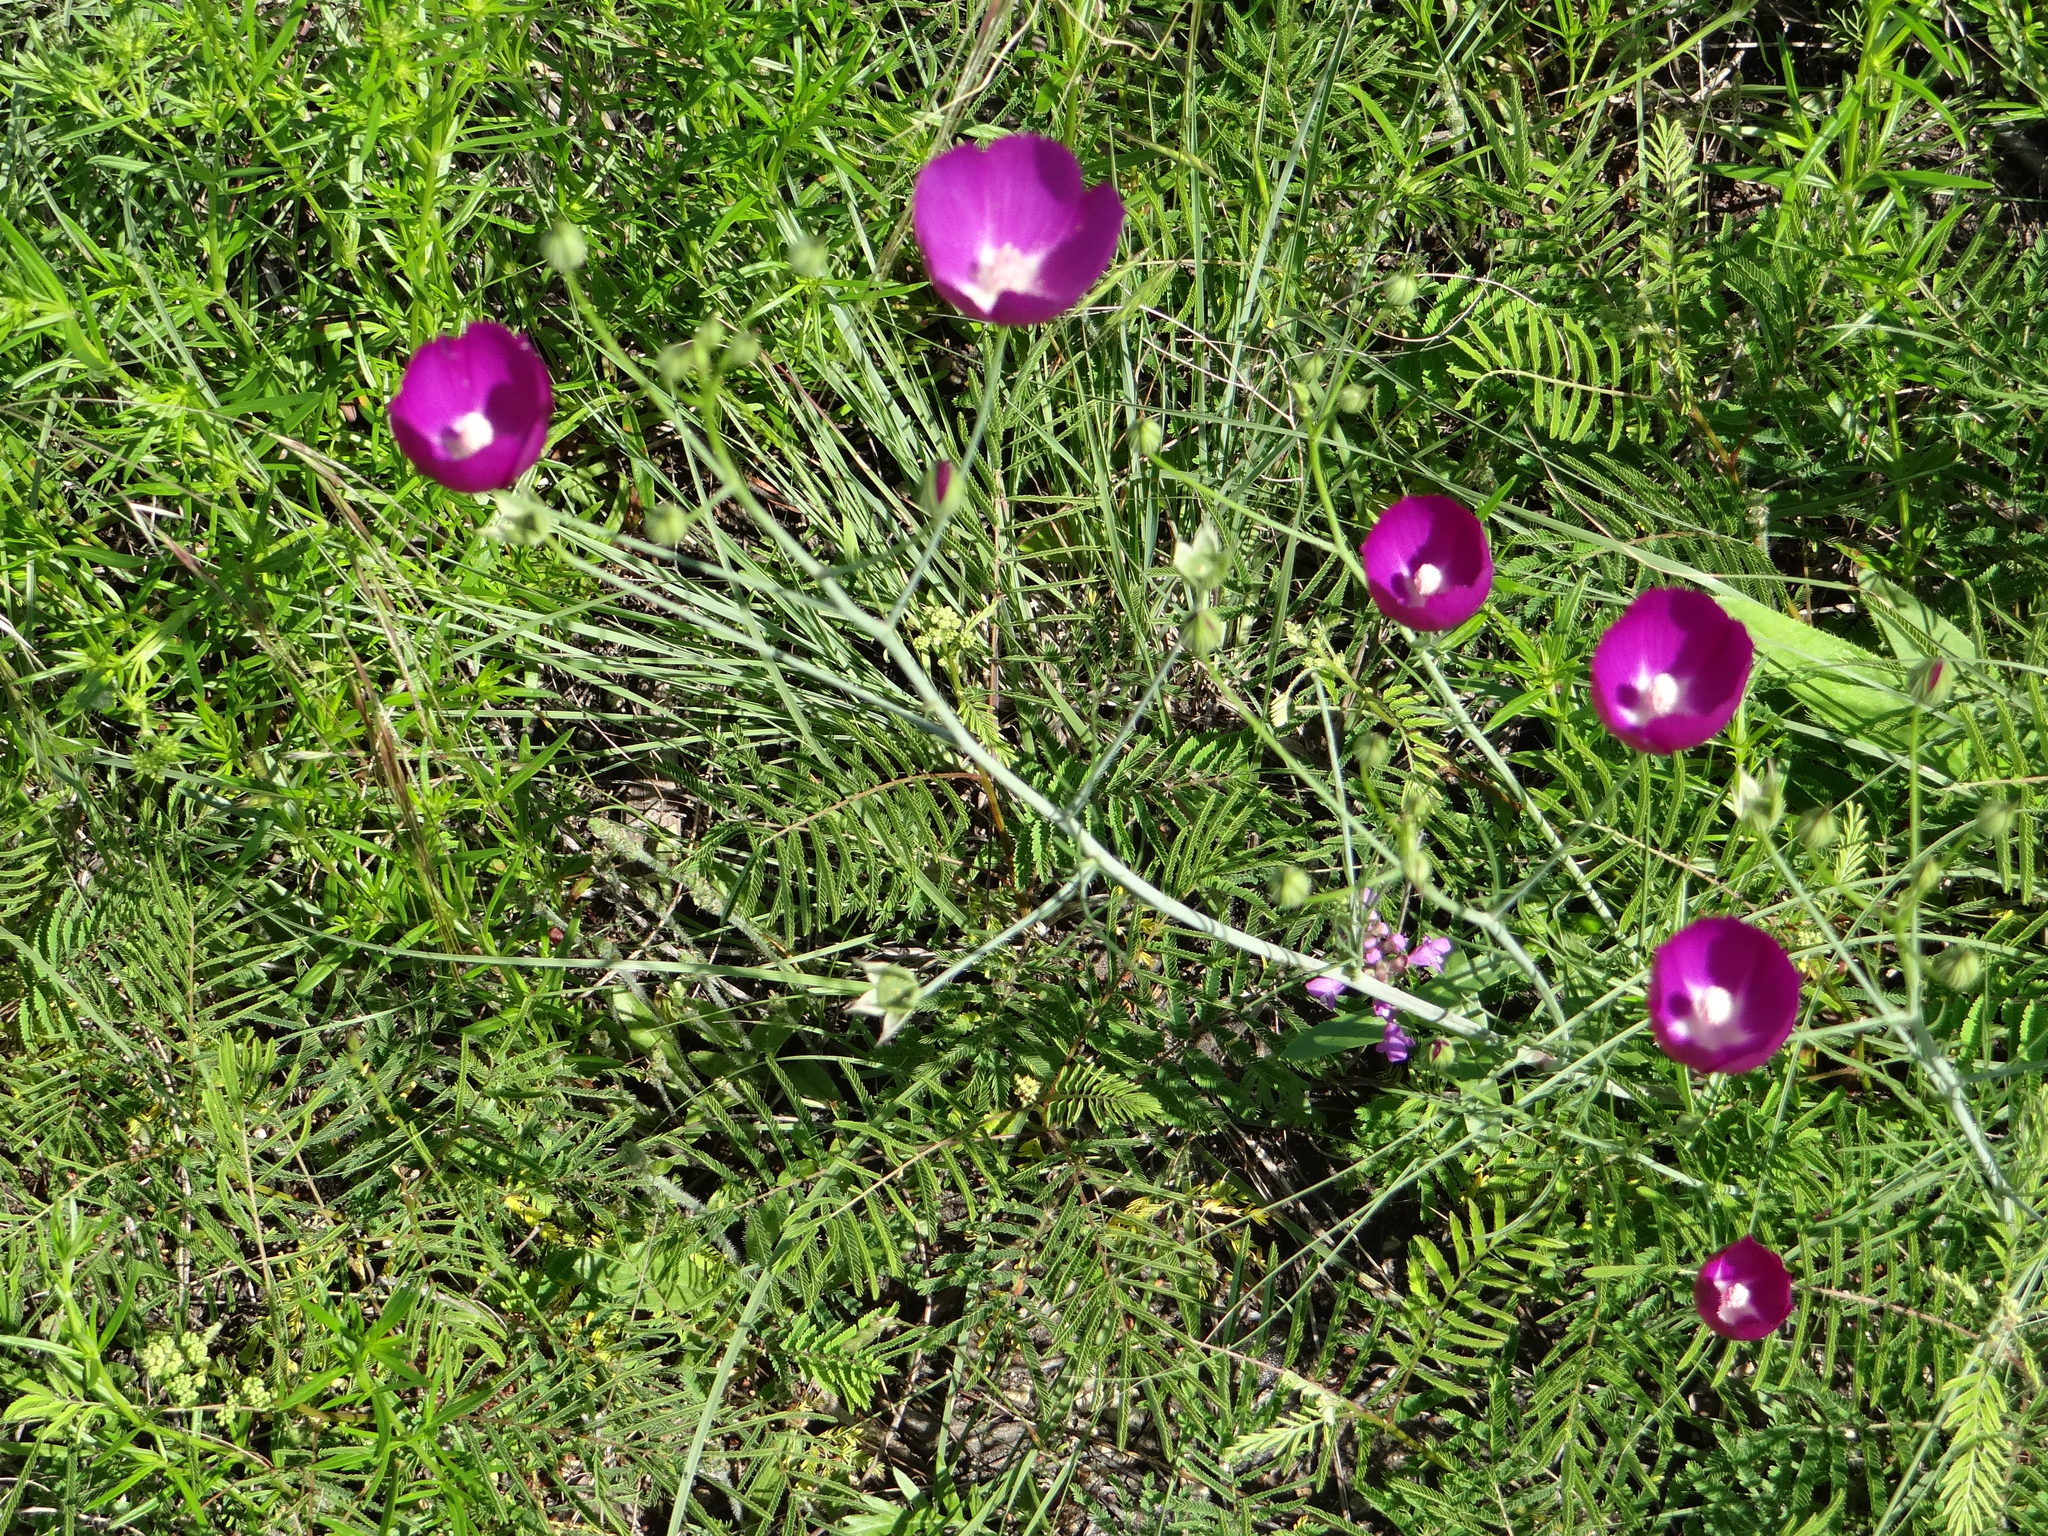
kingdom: Plantae
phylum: Tracheophyta
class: Magnoliopsida
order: Malvales
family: Malvaceae
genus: Callirhoe
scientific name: Callirhoe pedata
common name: Finger poppy-mallow
